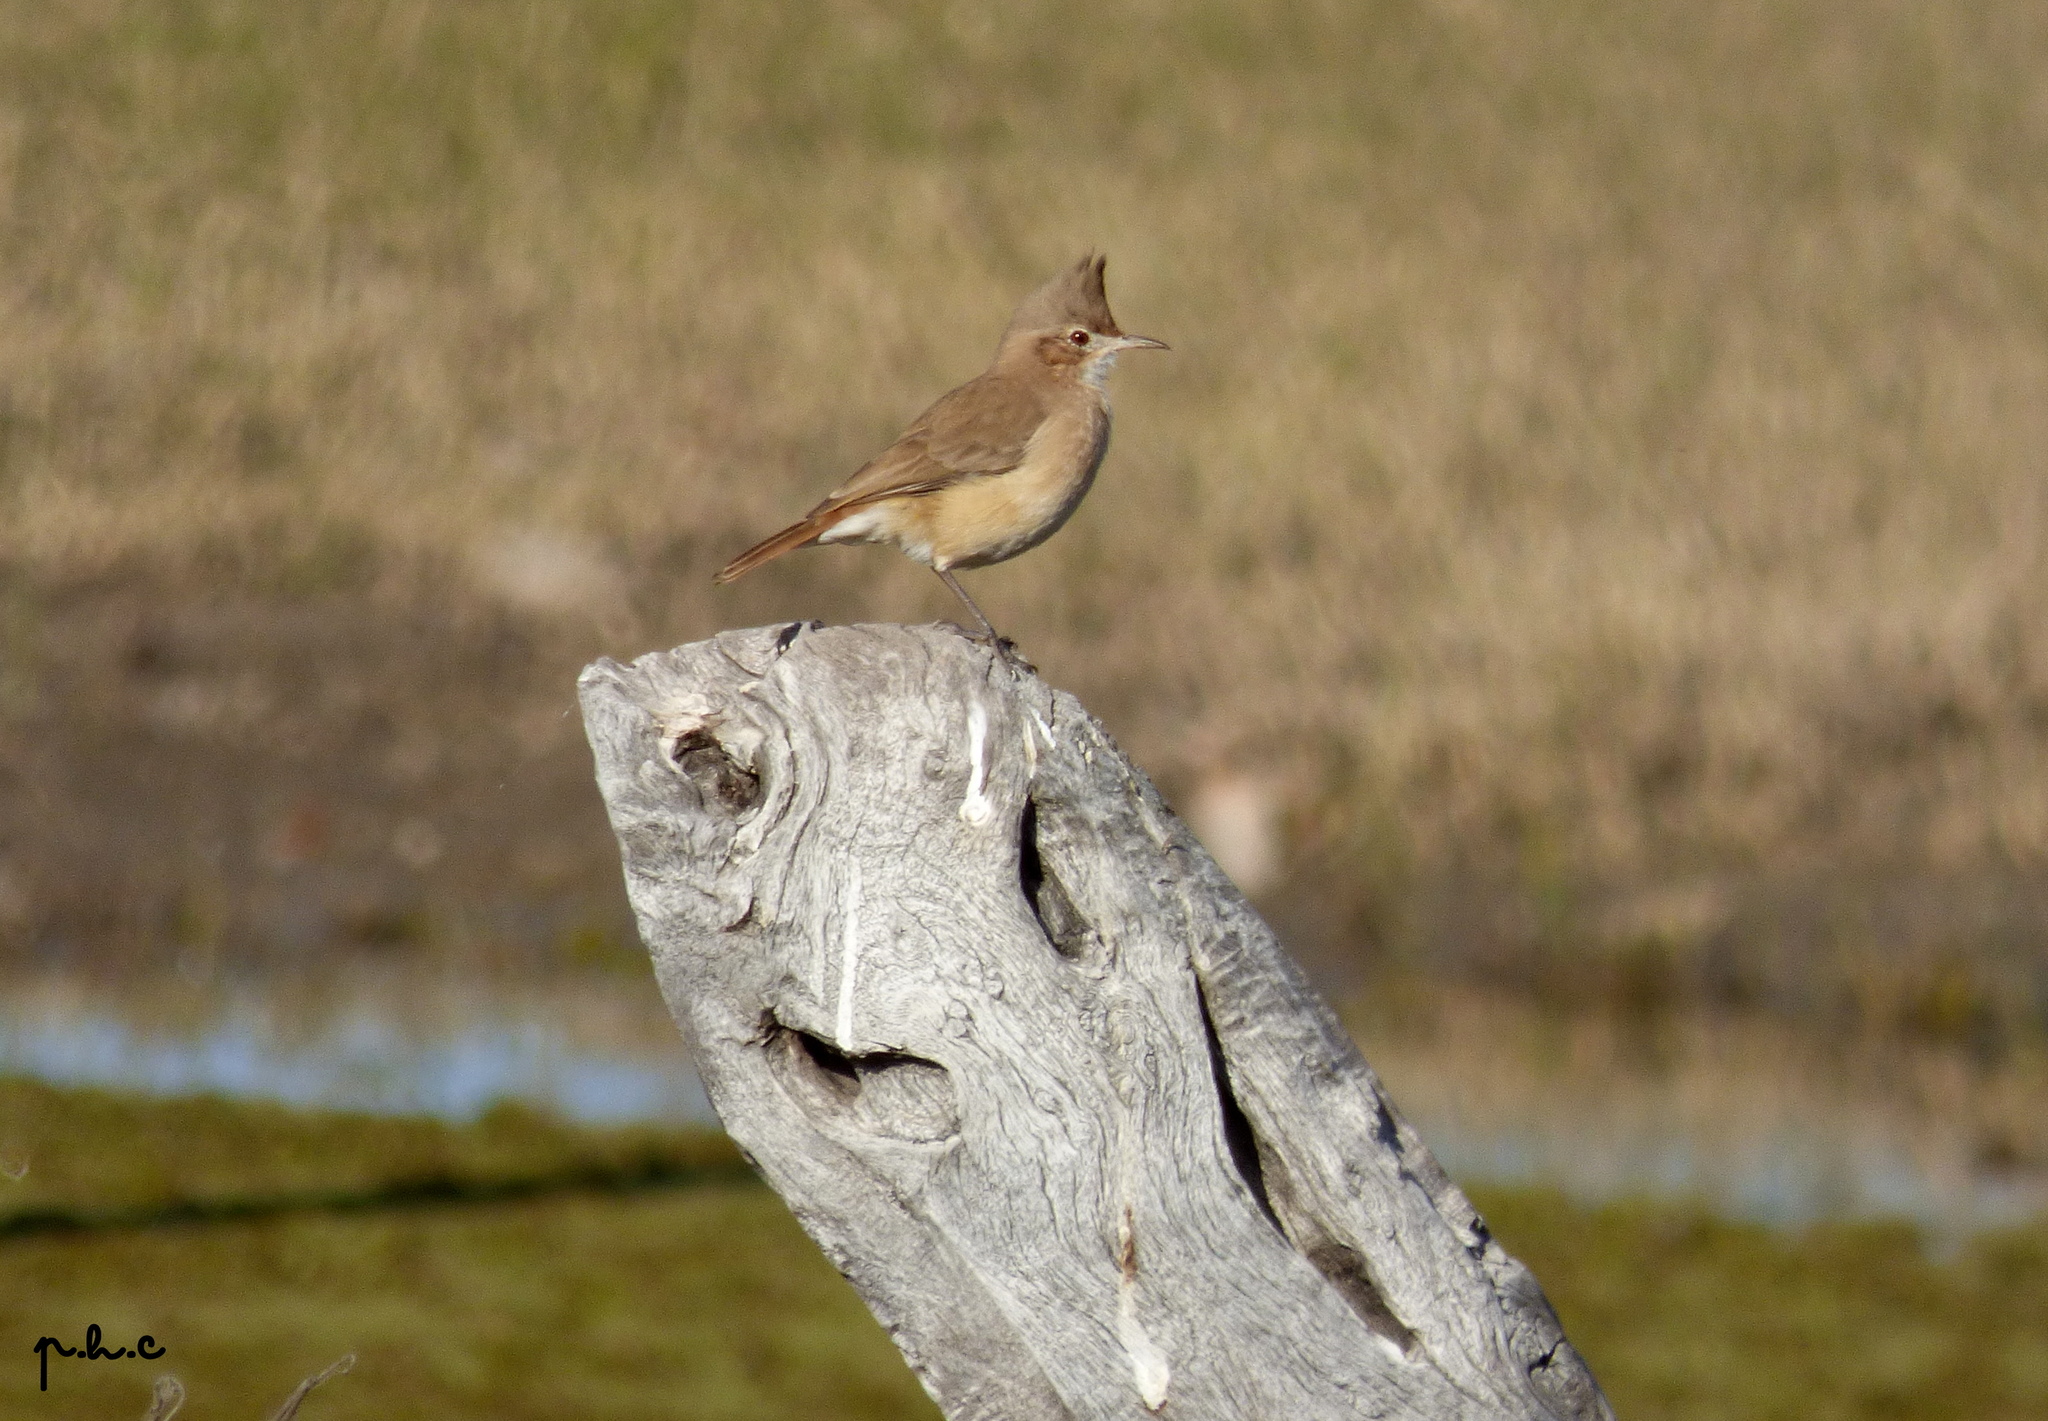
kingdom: Animalia
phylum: Chordata
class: Aves
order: Passeriformes
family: Furnariidae
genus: Furnarius
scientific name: Furnarius cristatus
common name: Crested hornero
